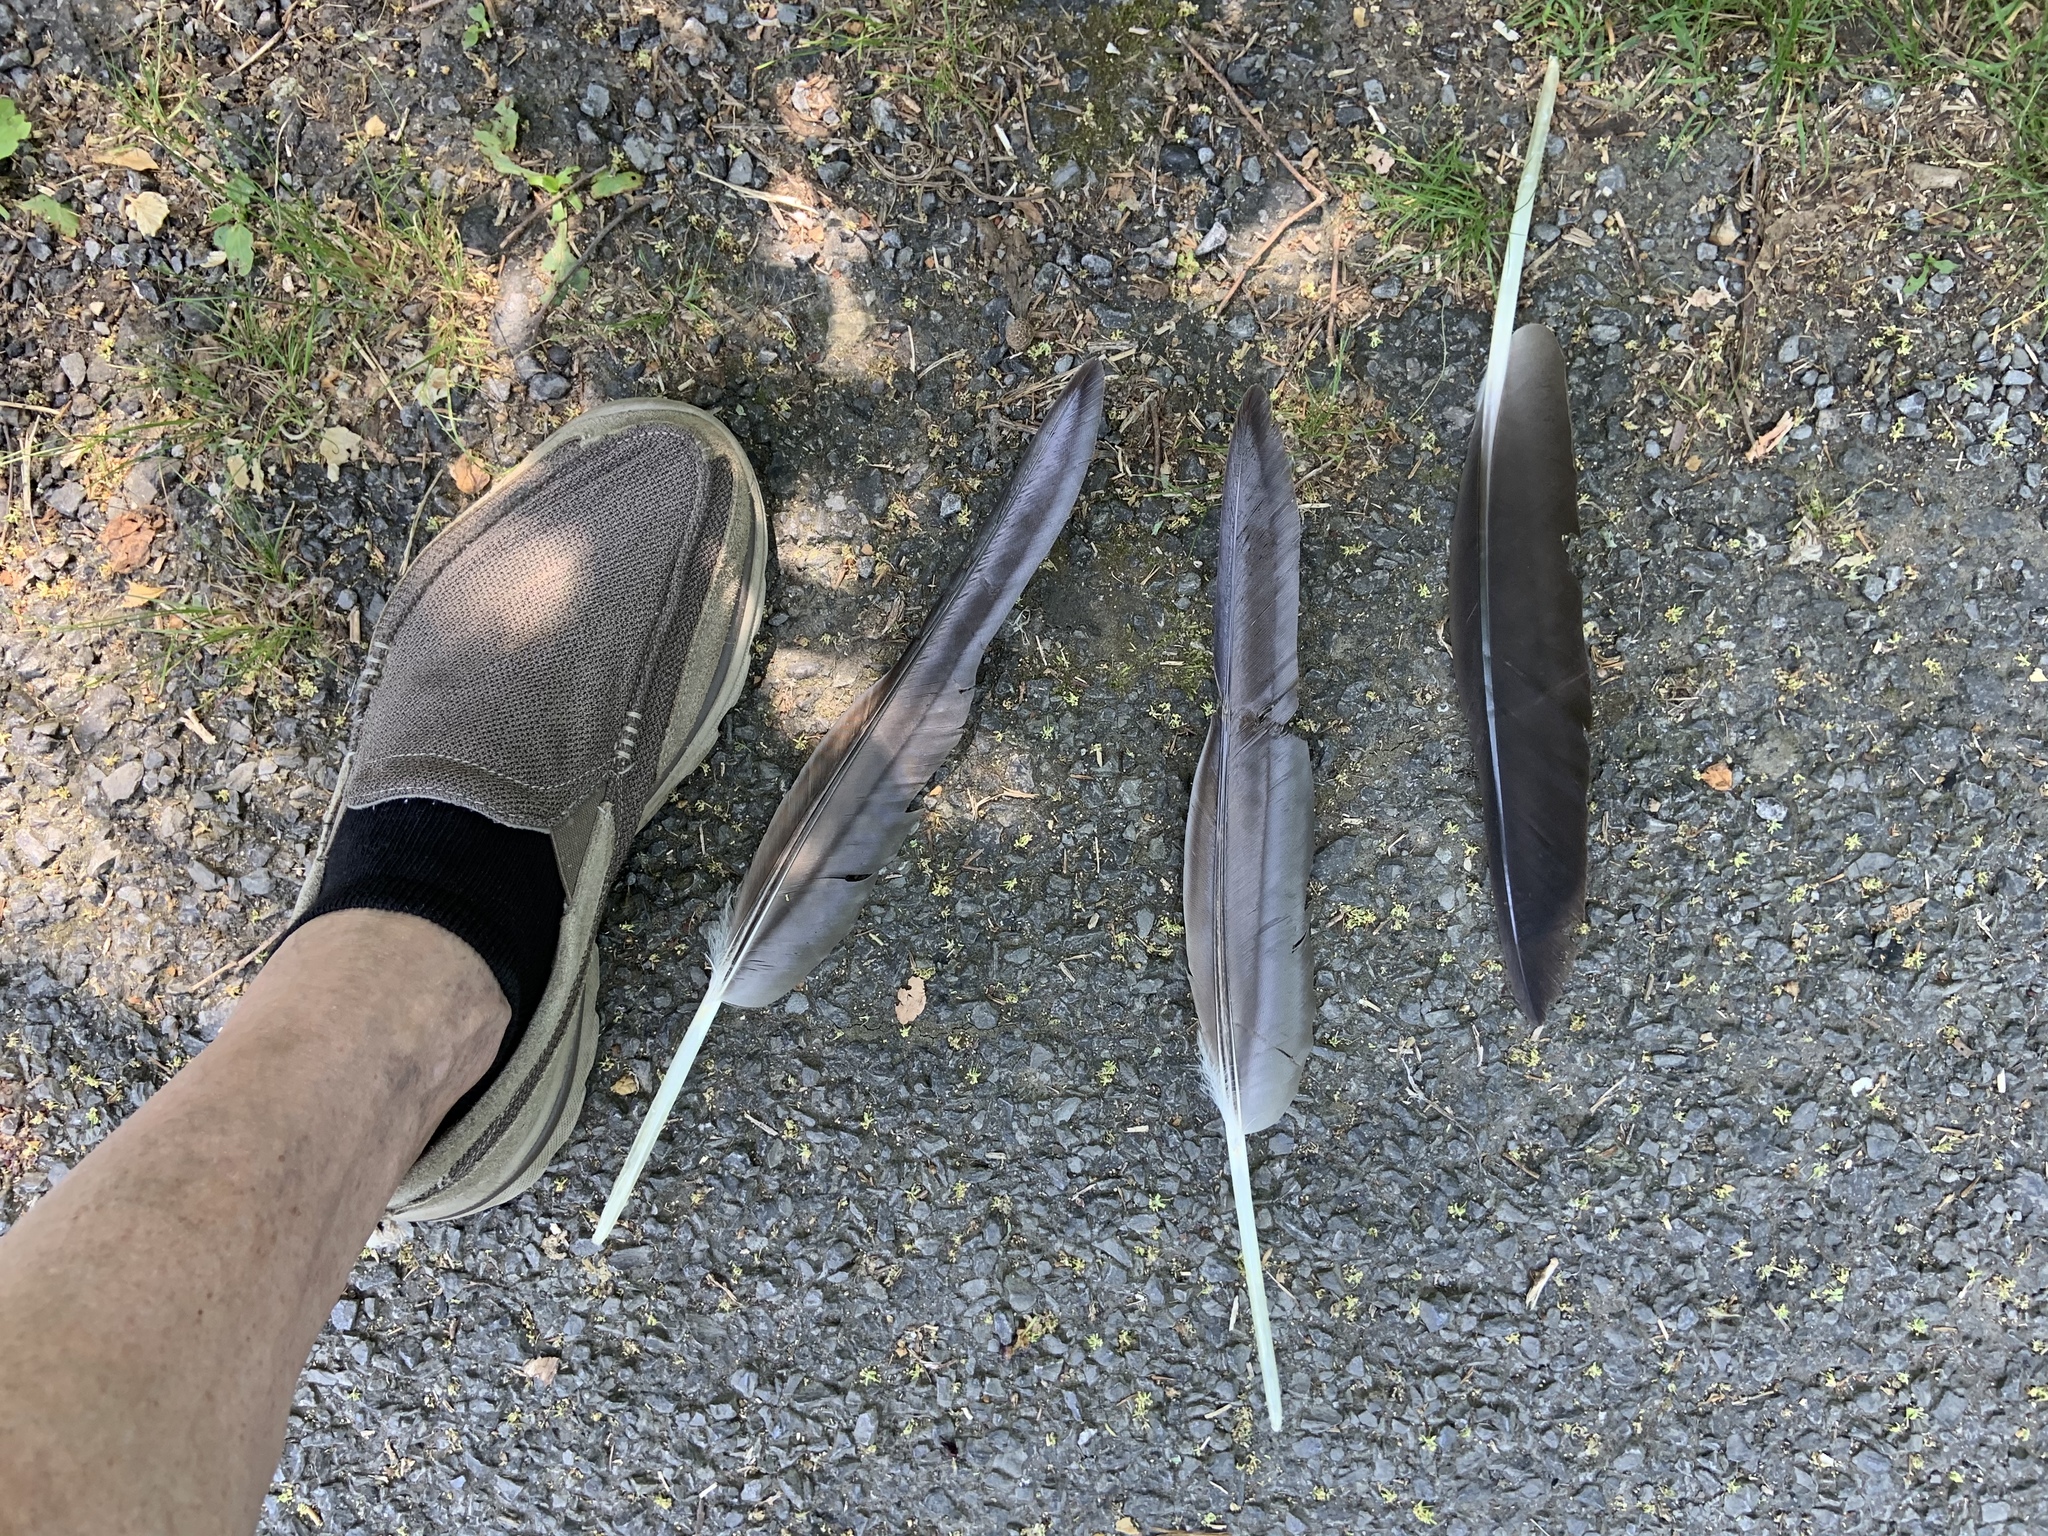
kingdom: Animalia
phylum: Chordata
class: Aves
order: Anseriformes
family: Anatidae
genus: Branta
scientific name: Branta canadensis
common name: Canada goose
